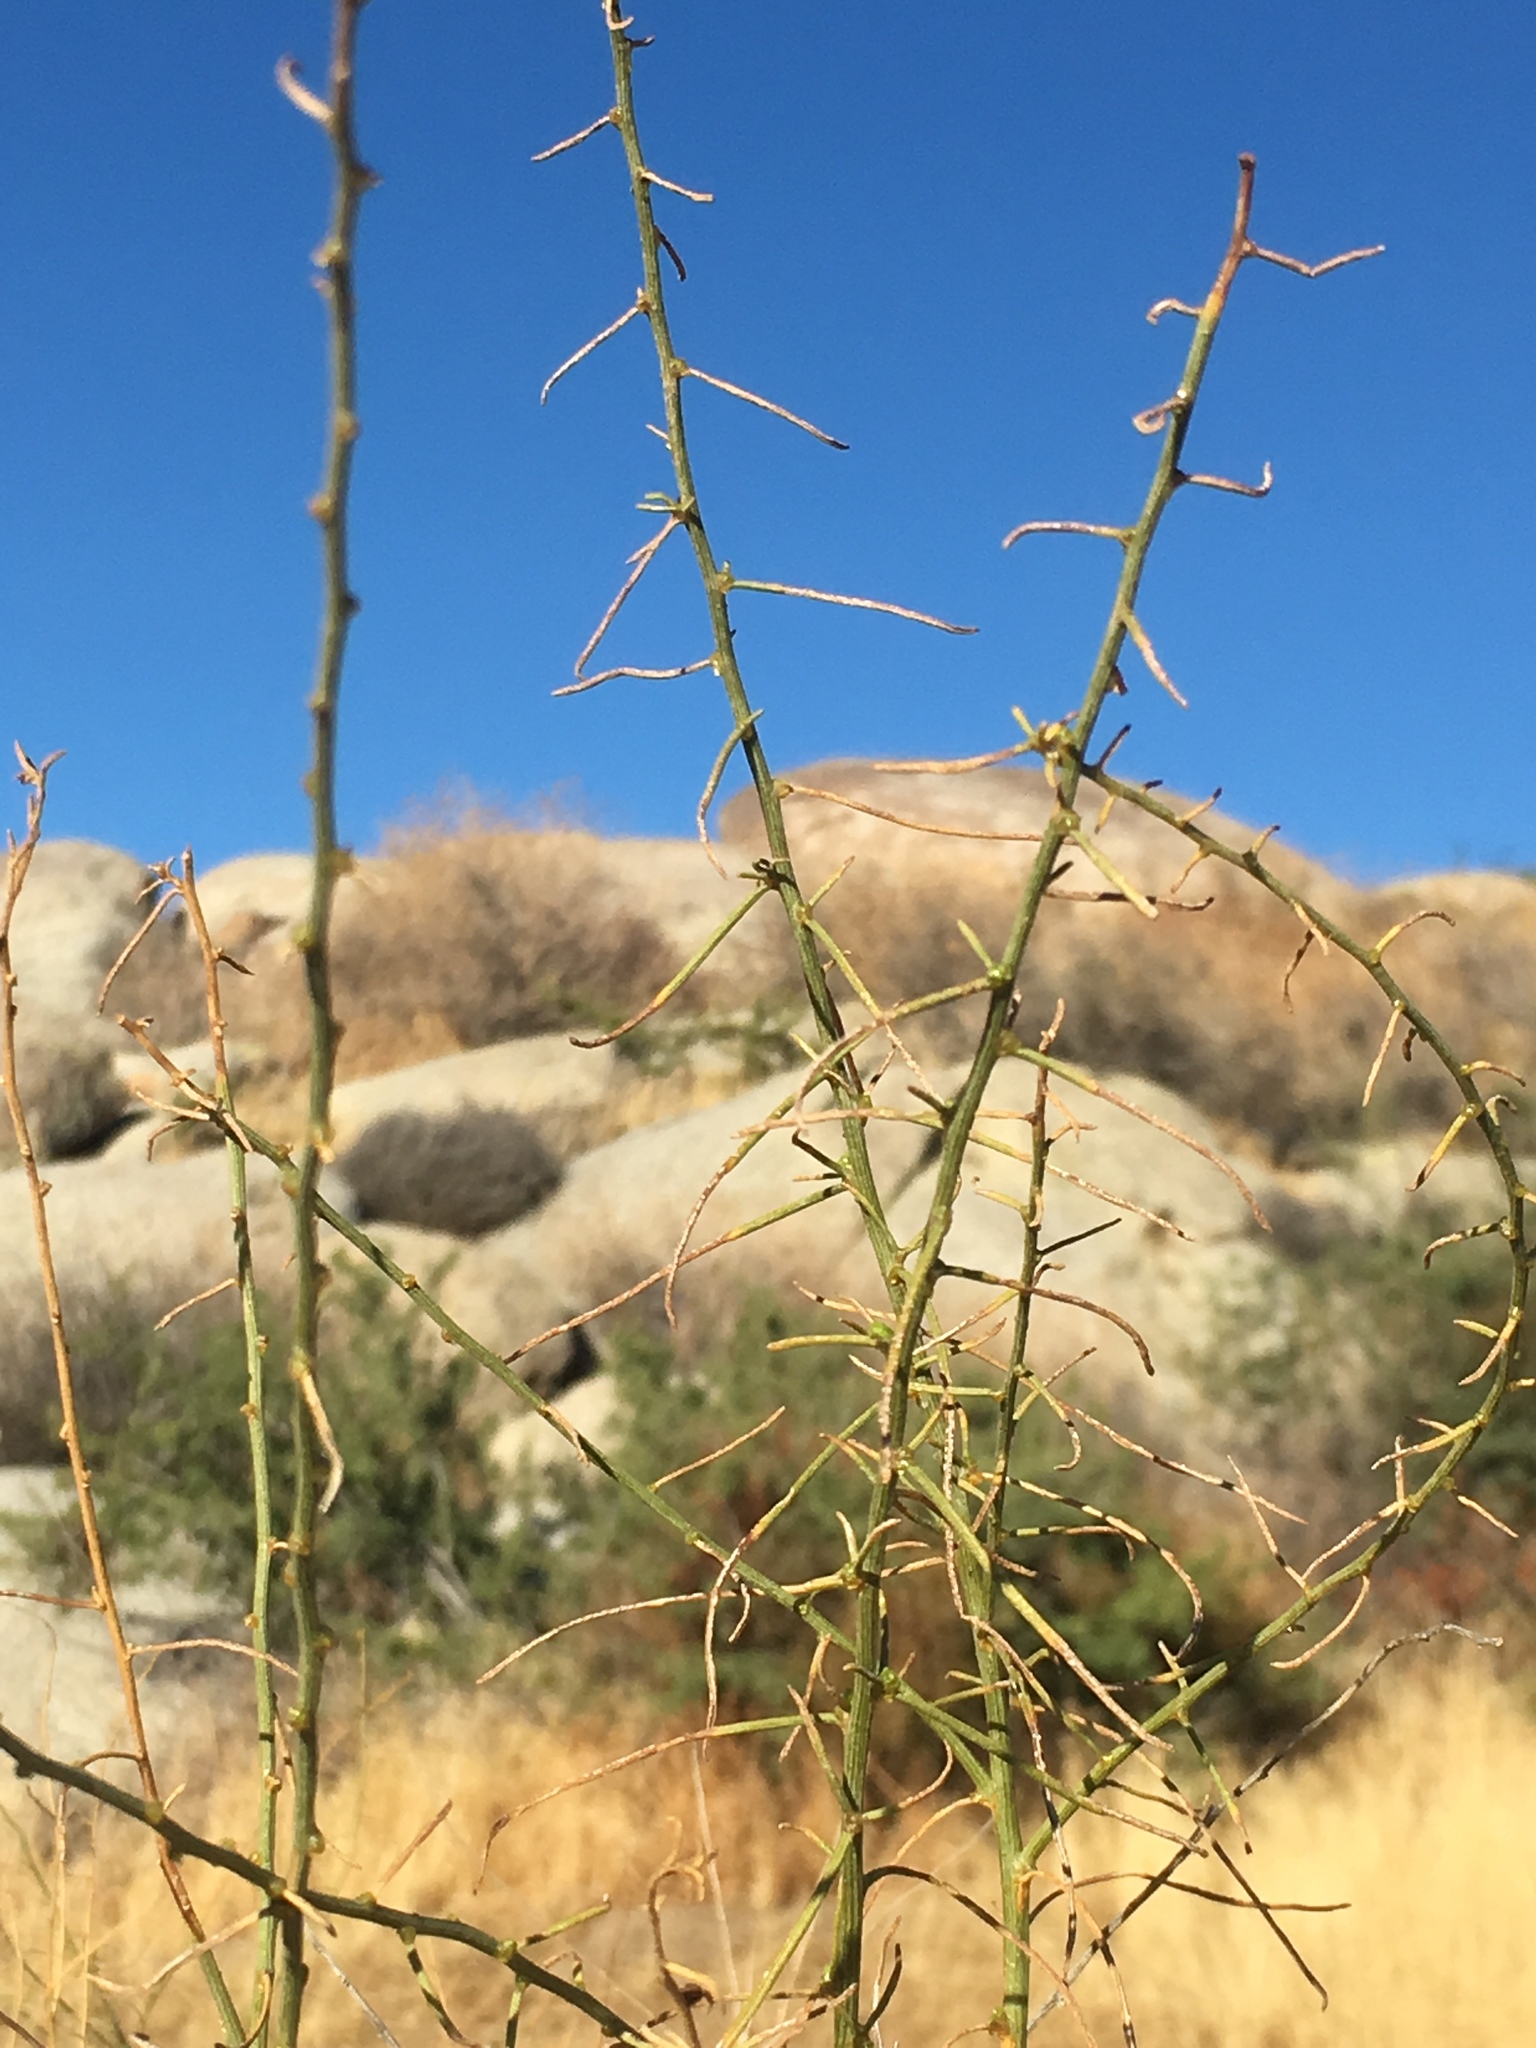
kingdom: Plantae
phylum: Tracheophyta
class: Magnoliopsida
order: Asterales
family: Asteraceae
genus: Ambrosia
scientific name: Ambrosia salsola
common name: Burrobrush
